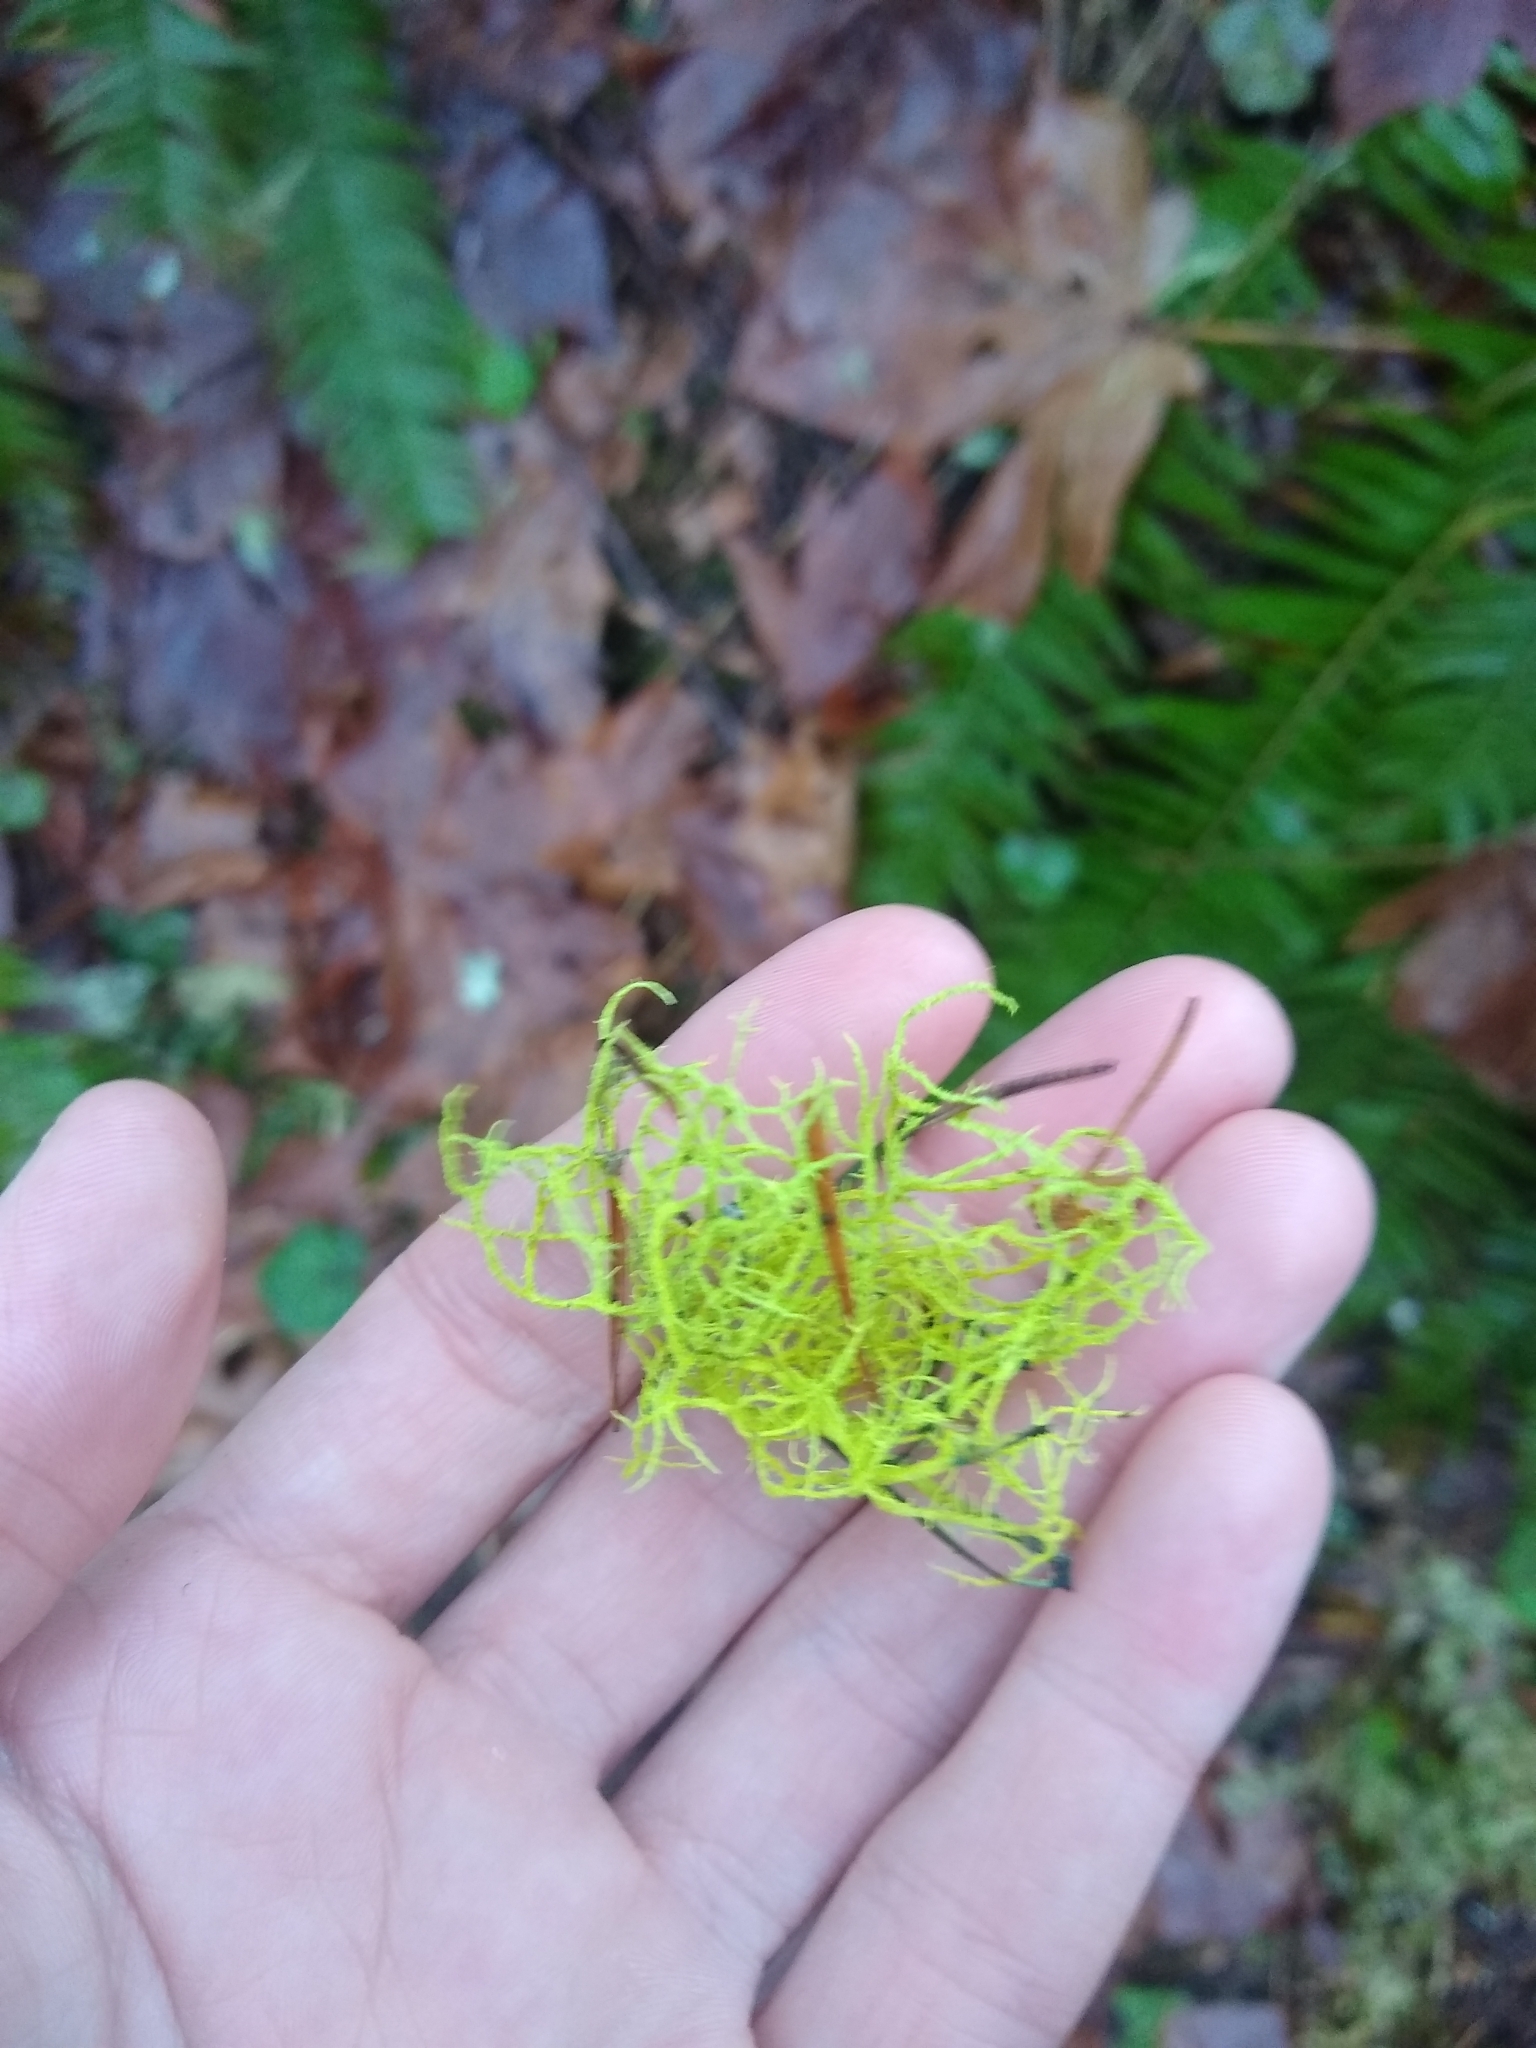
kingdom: Fungi
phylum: Ascomycota
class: Lecanoromycetes
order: Lecanorales
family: Parmeliaceae
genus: Letharia
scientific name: Letharia vulpina
